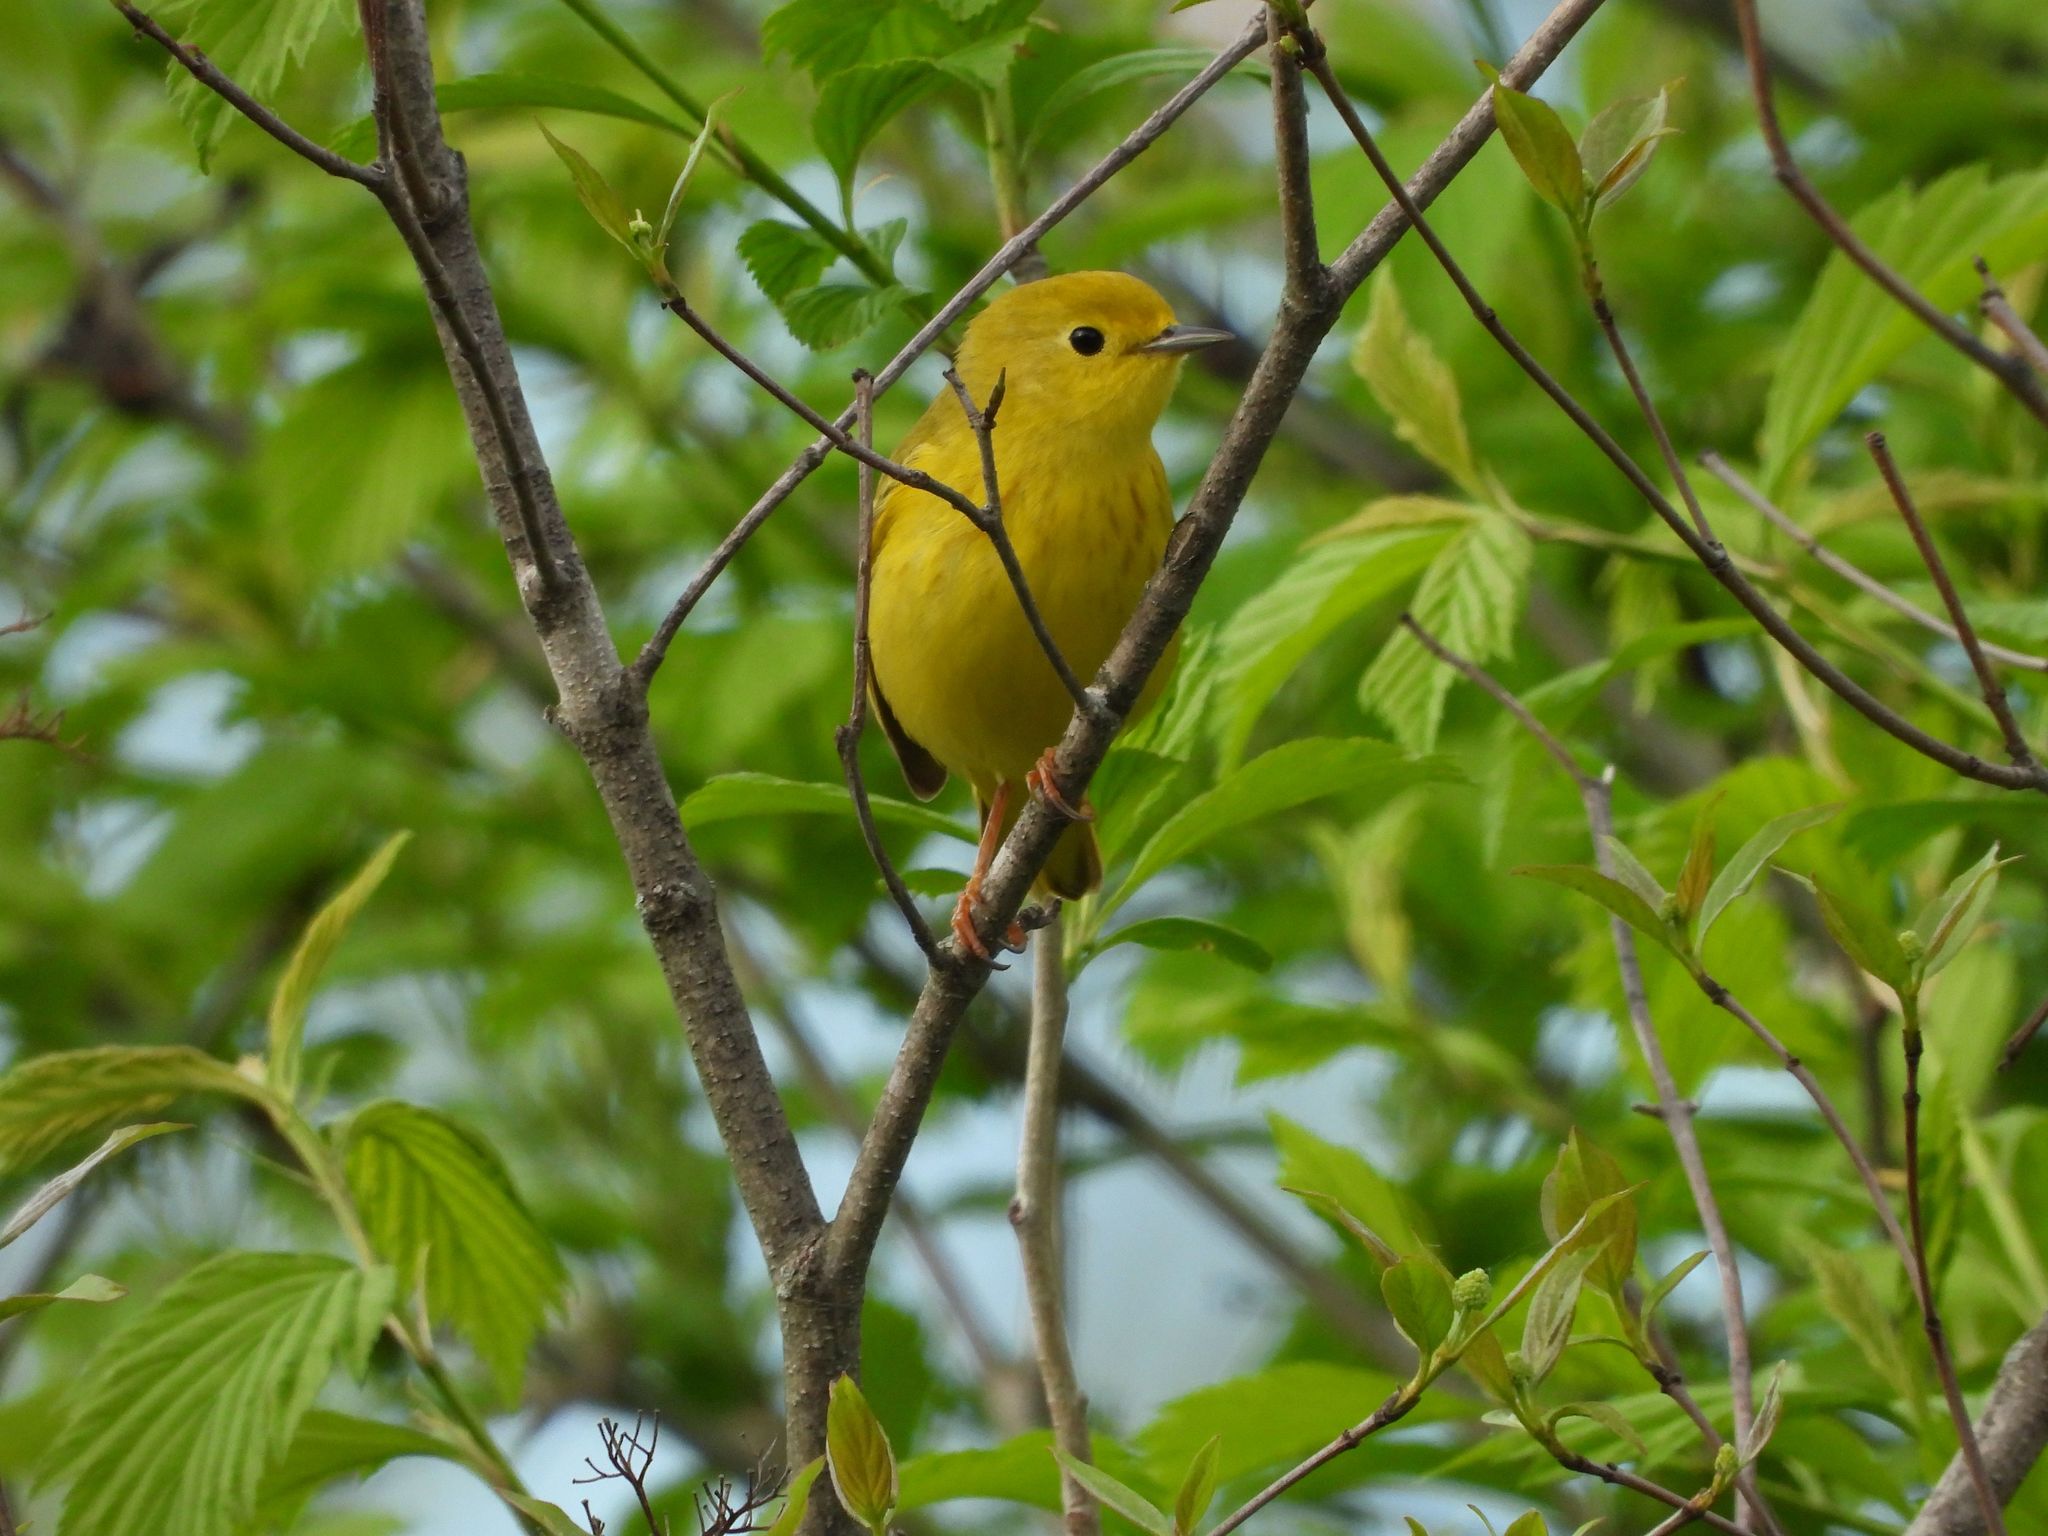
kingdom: Animalia
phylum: Chordata
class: Aves
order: Passeriformes
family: Parulidae
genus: Setophaga
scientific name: Setophaga petechia
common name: Yellow warbler
